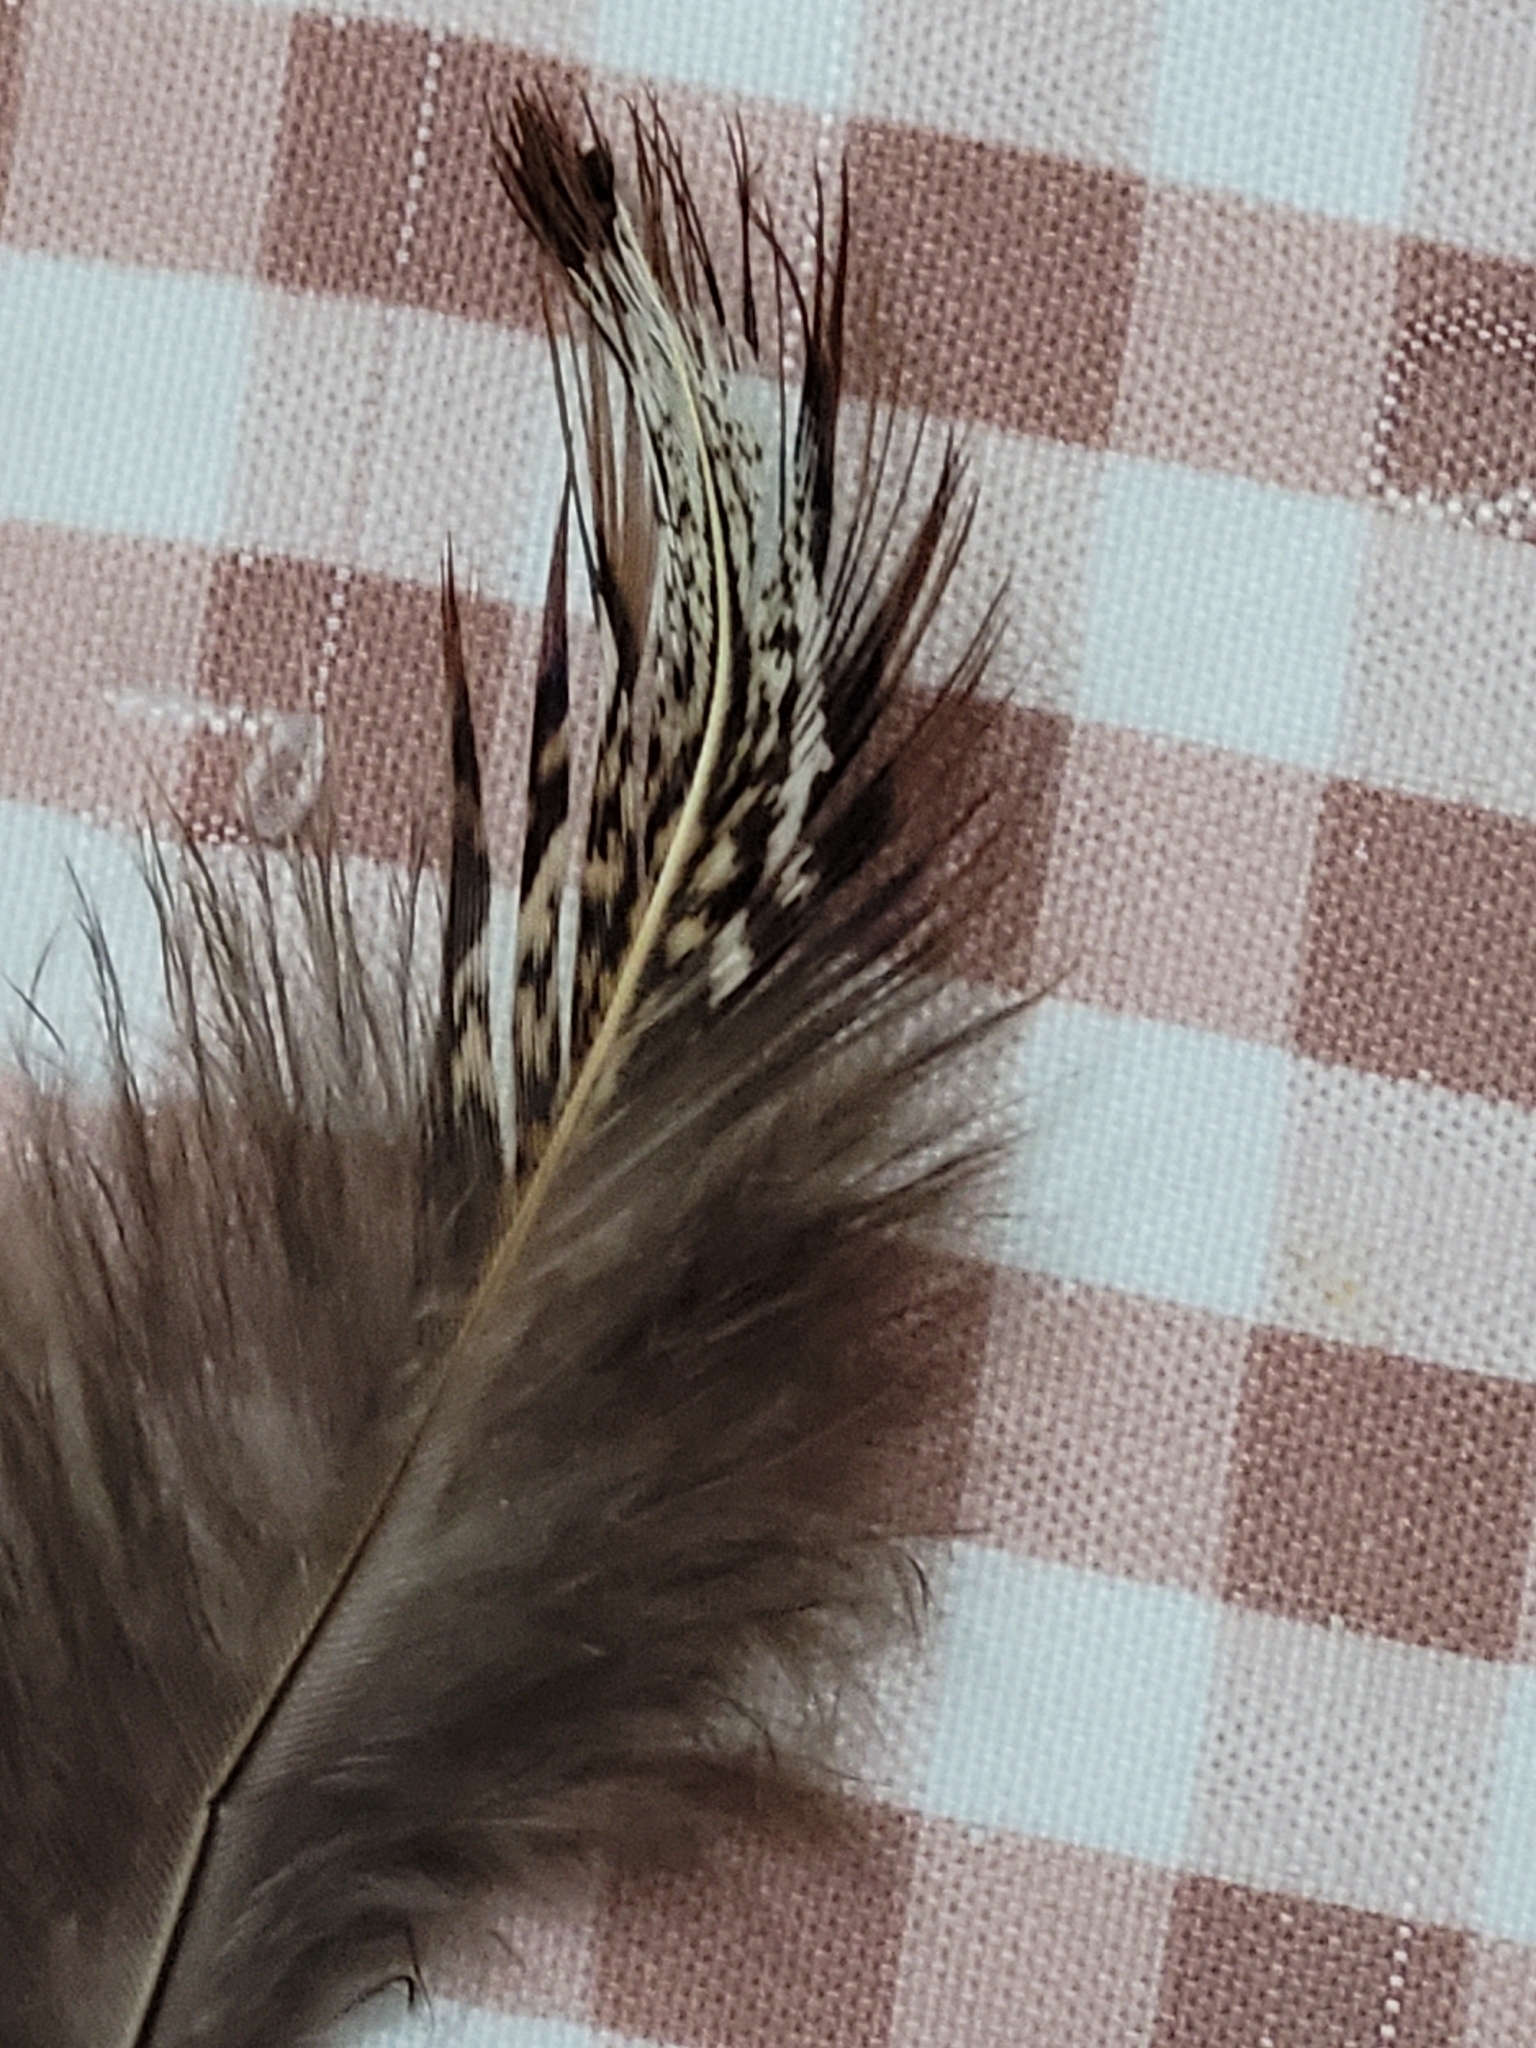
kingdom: Animalia
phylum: Chordata
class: Aves
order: Galliformes
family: Phasianidae
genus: Phasianus
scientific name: Phasianus colchicus
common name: Common pheasant
